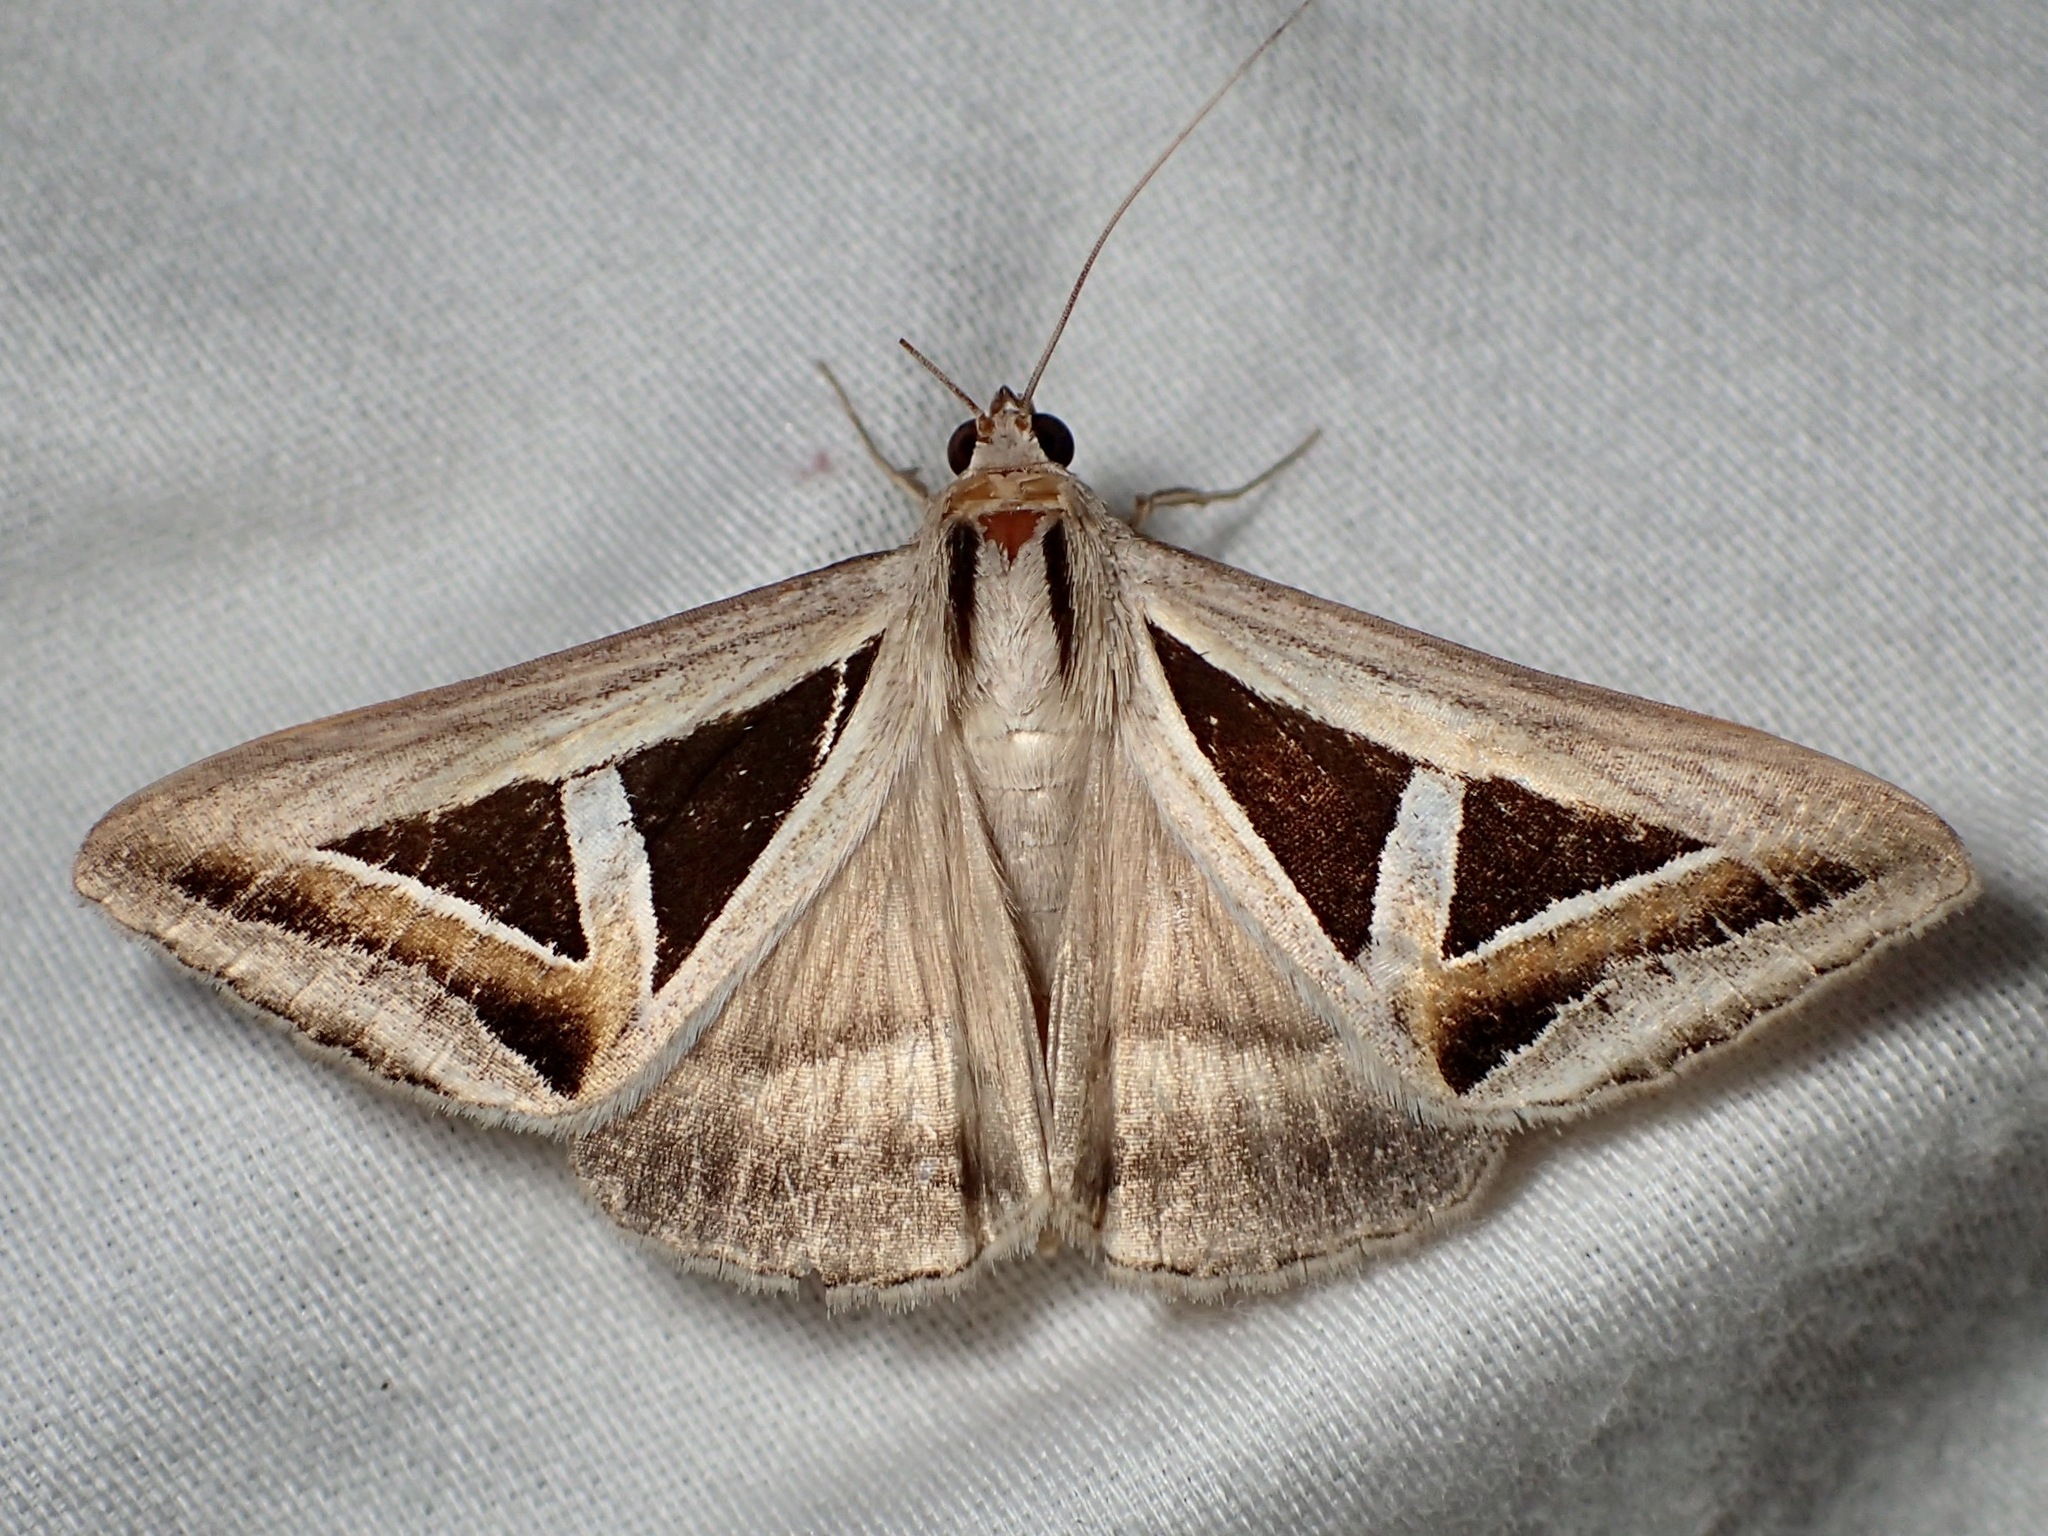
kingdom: Animalia
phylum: Arthropoda
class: Insecta
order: Lepidoptera
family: Erebidae
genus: Trigonodes
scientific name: Trigonodes hyppasia
